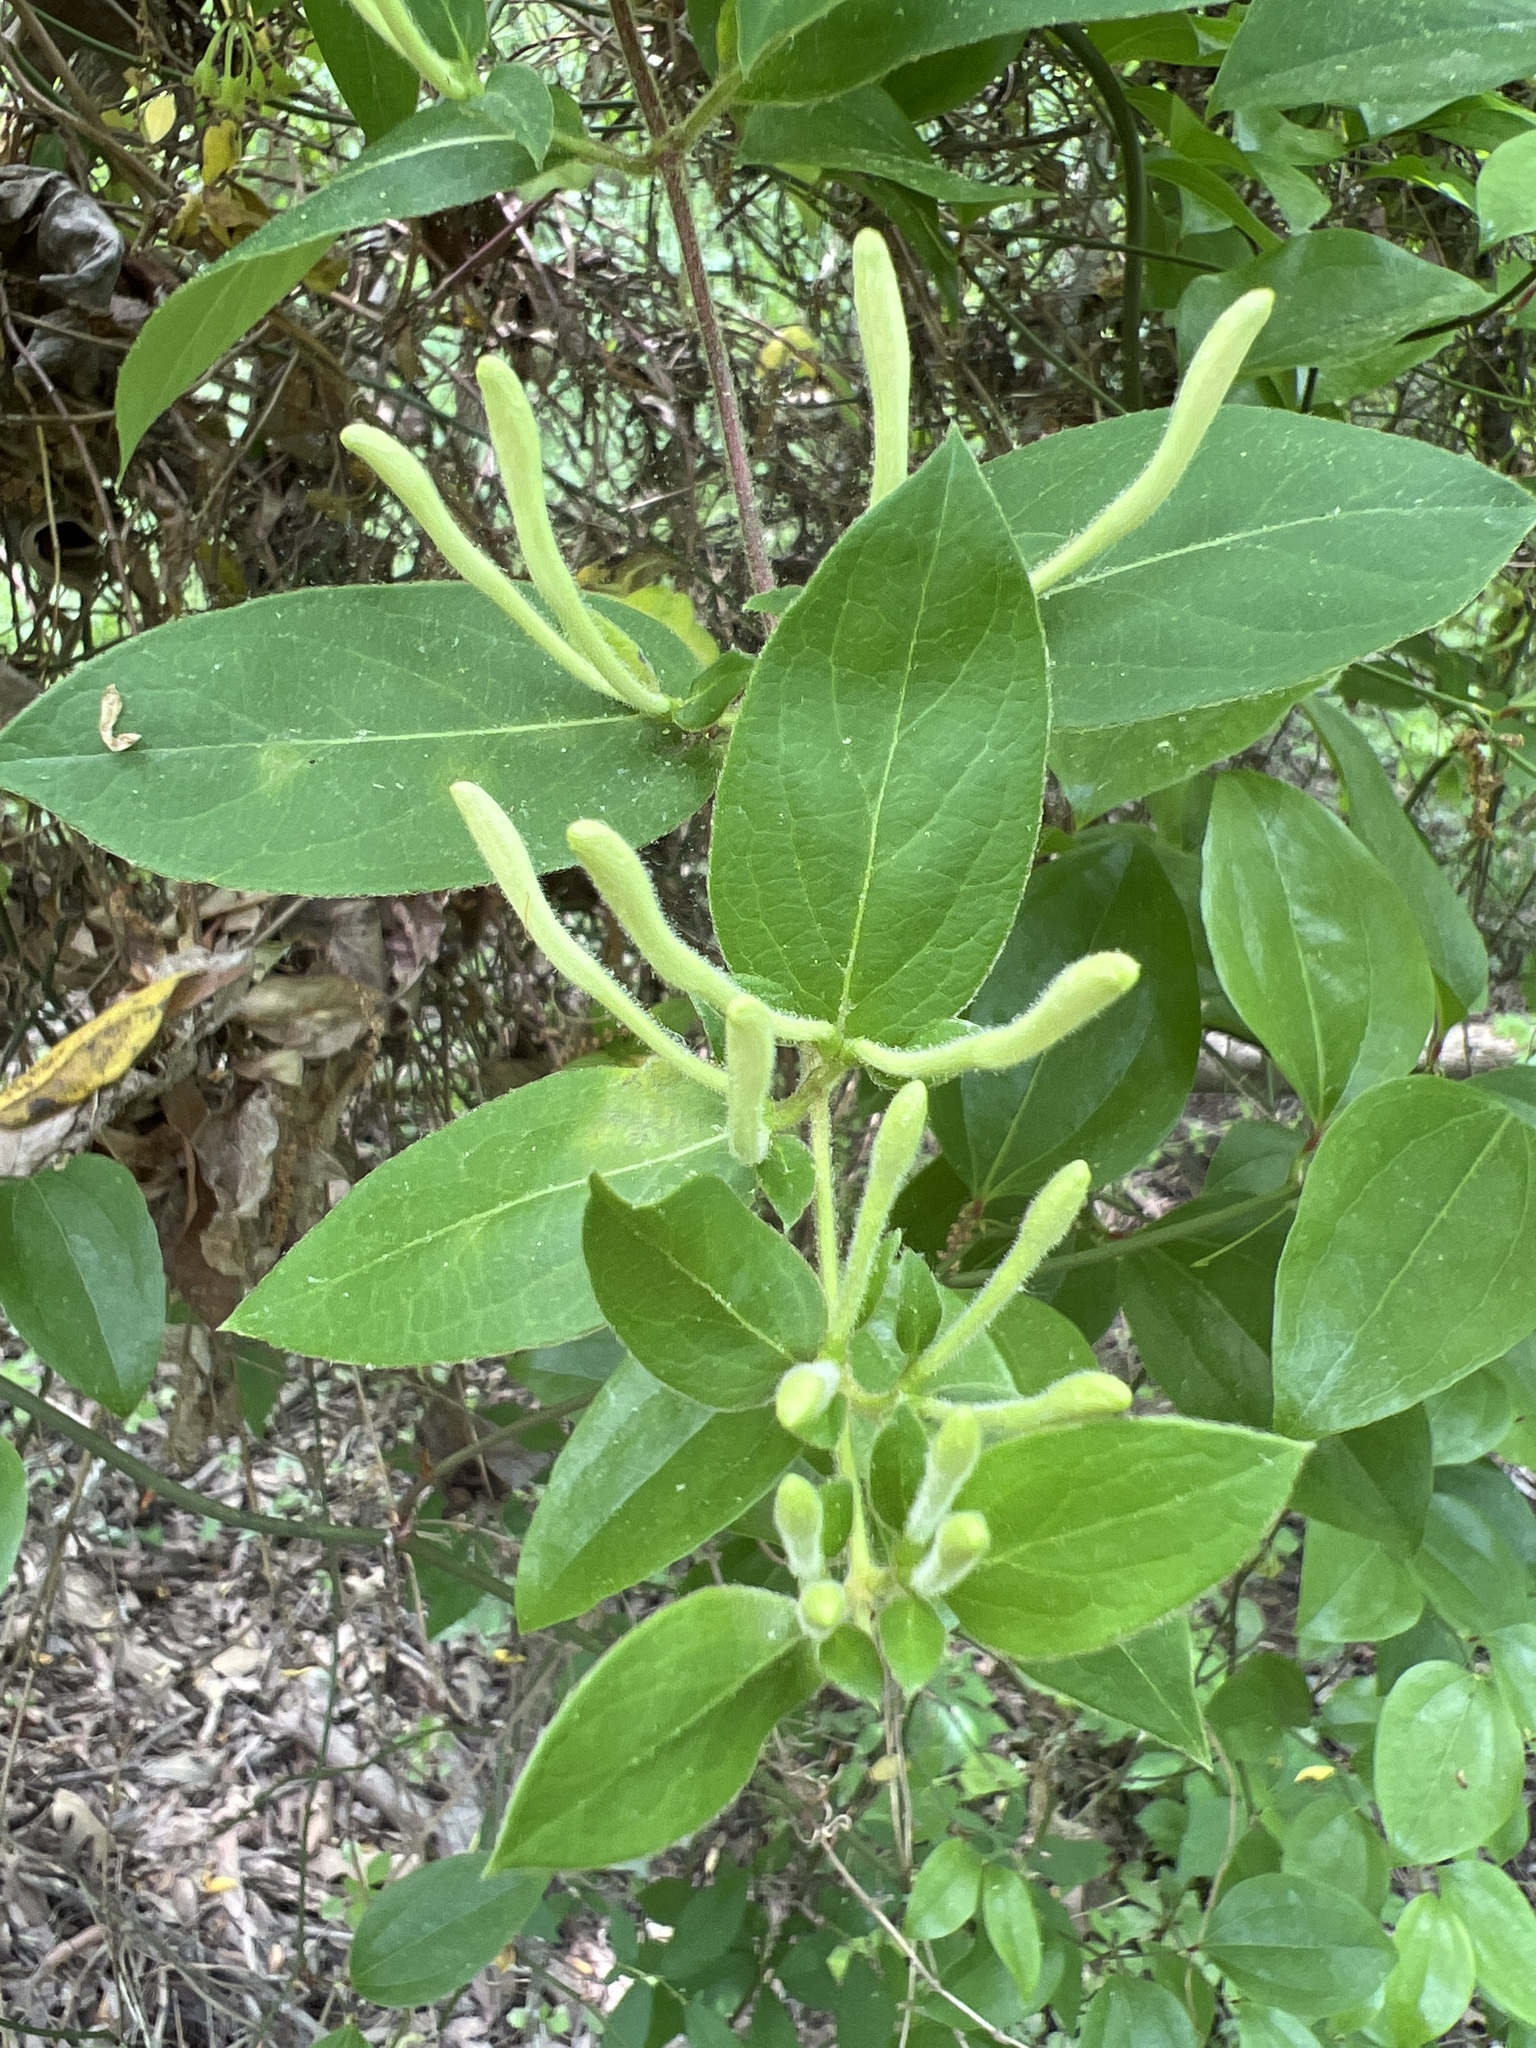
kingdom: Plantae
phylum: Tracheophyta
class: Magnoliopsida
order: Dipsacales
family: Caprifoliaceae
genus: Lonicera
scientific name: Lonicera japonica
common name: Japanese honeysuckle
